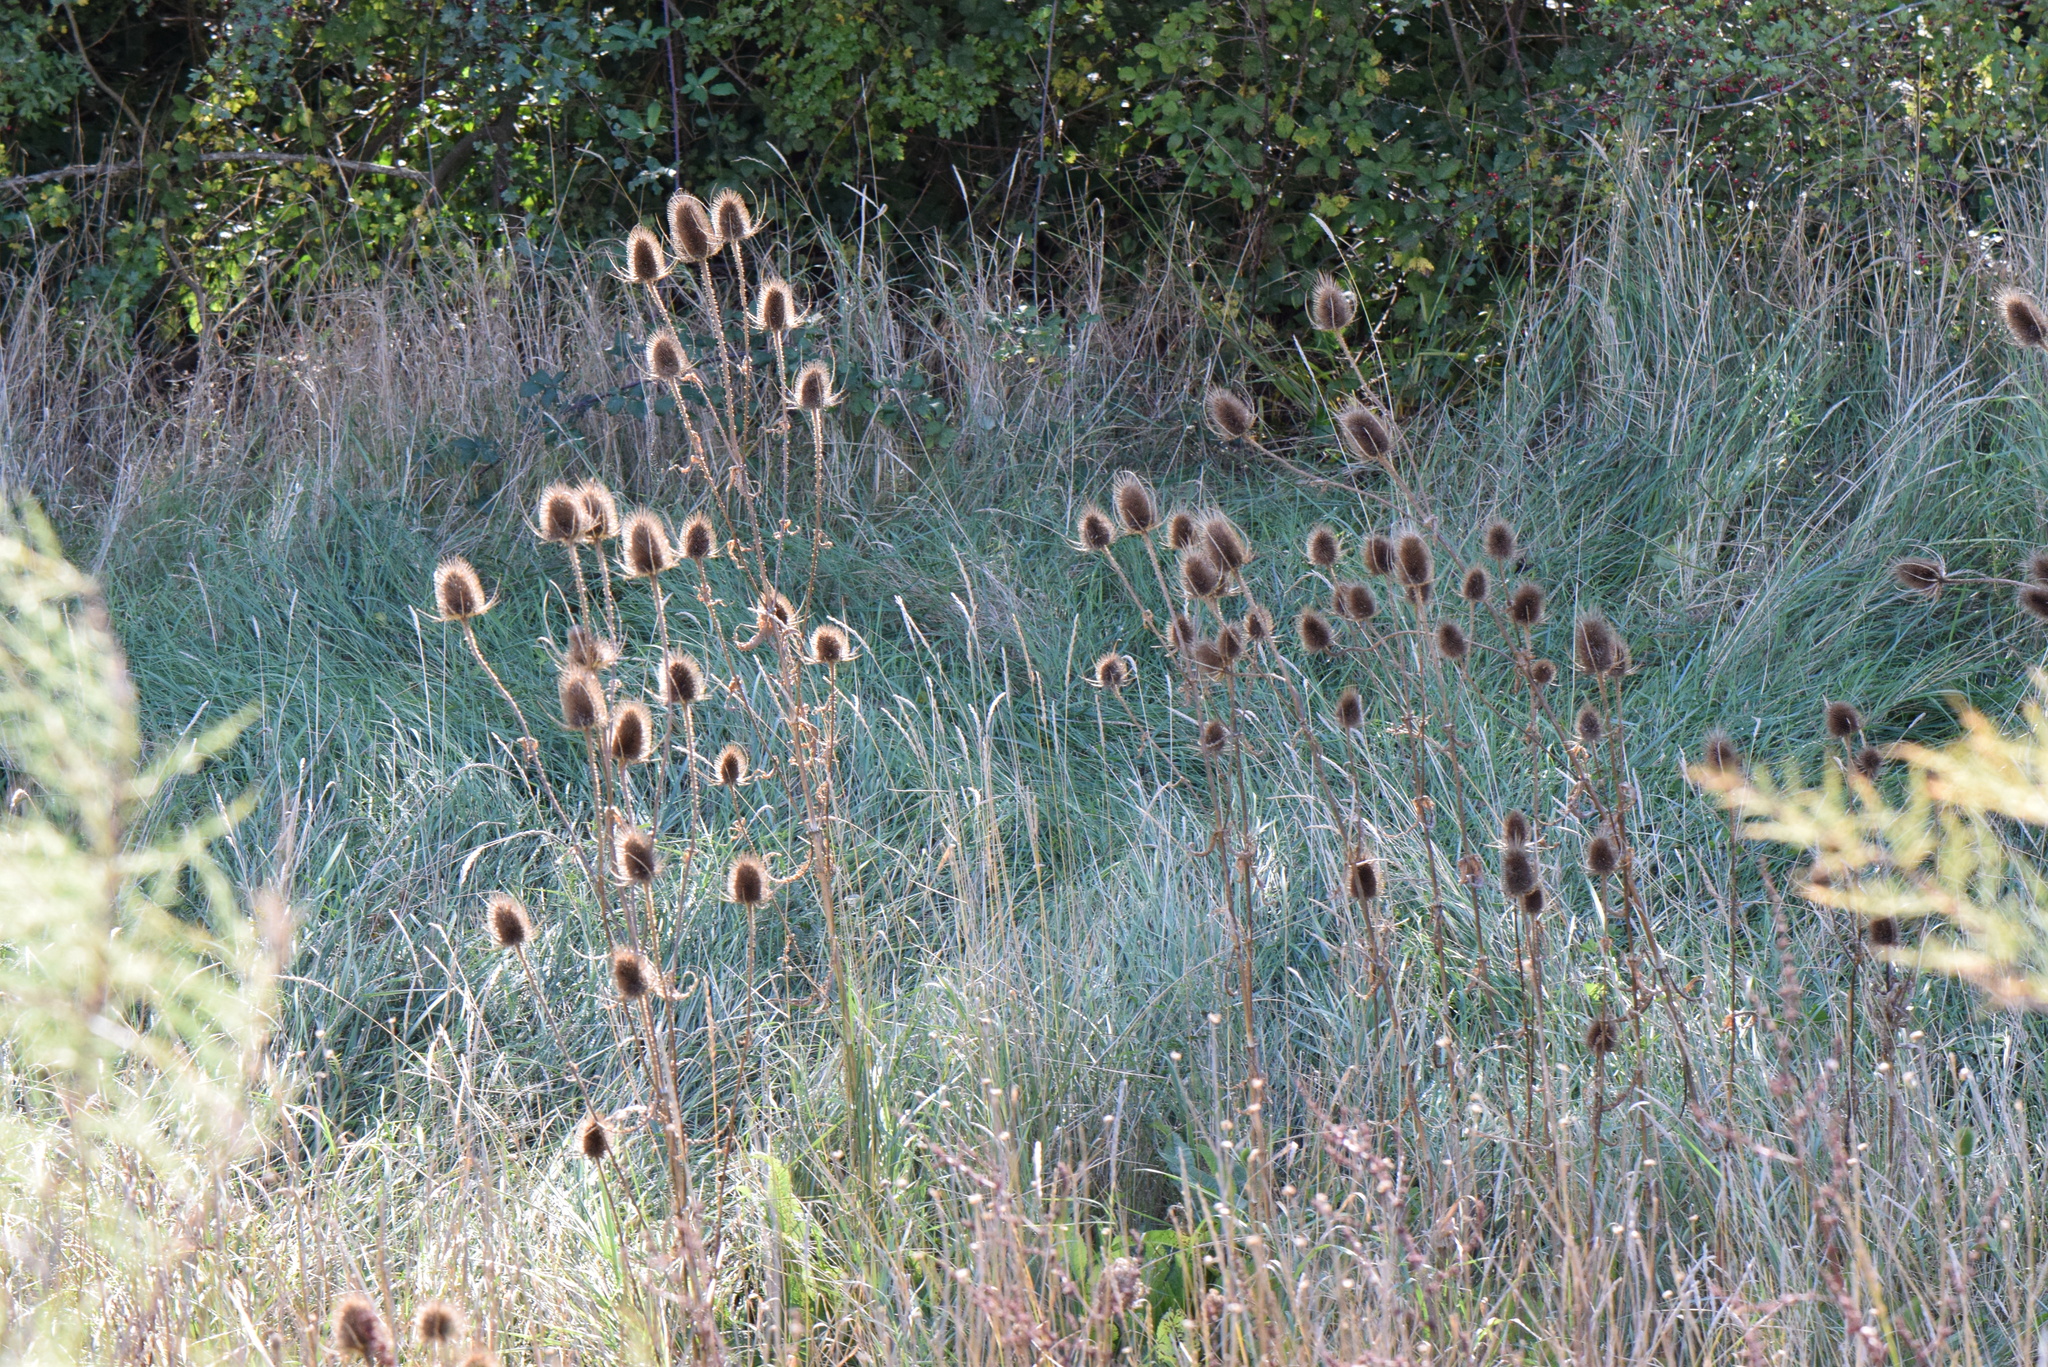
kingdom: Plantae
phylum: Tracheophyta
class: Magnoliopsida
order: Dipsacales
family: Caprifoliaceae
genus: Dipsacus
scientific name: Dipsacus fullonum
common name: Teasel
